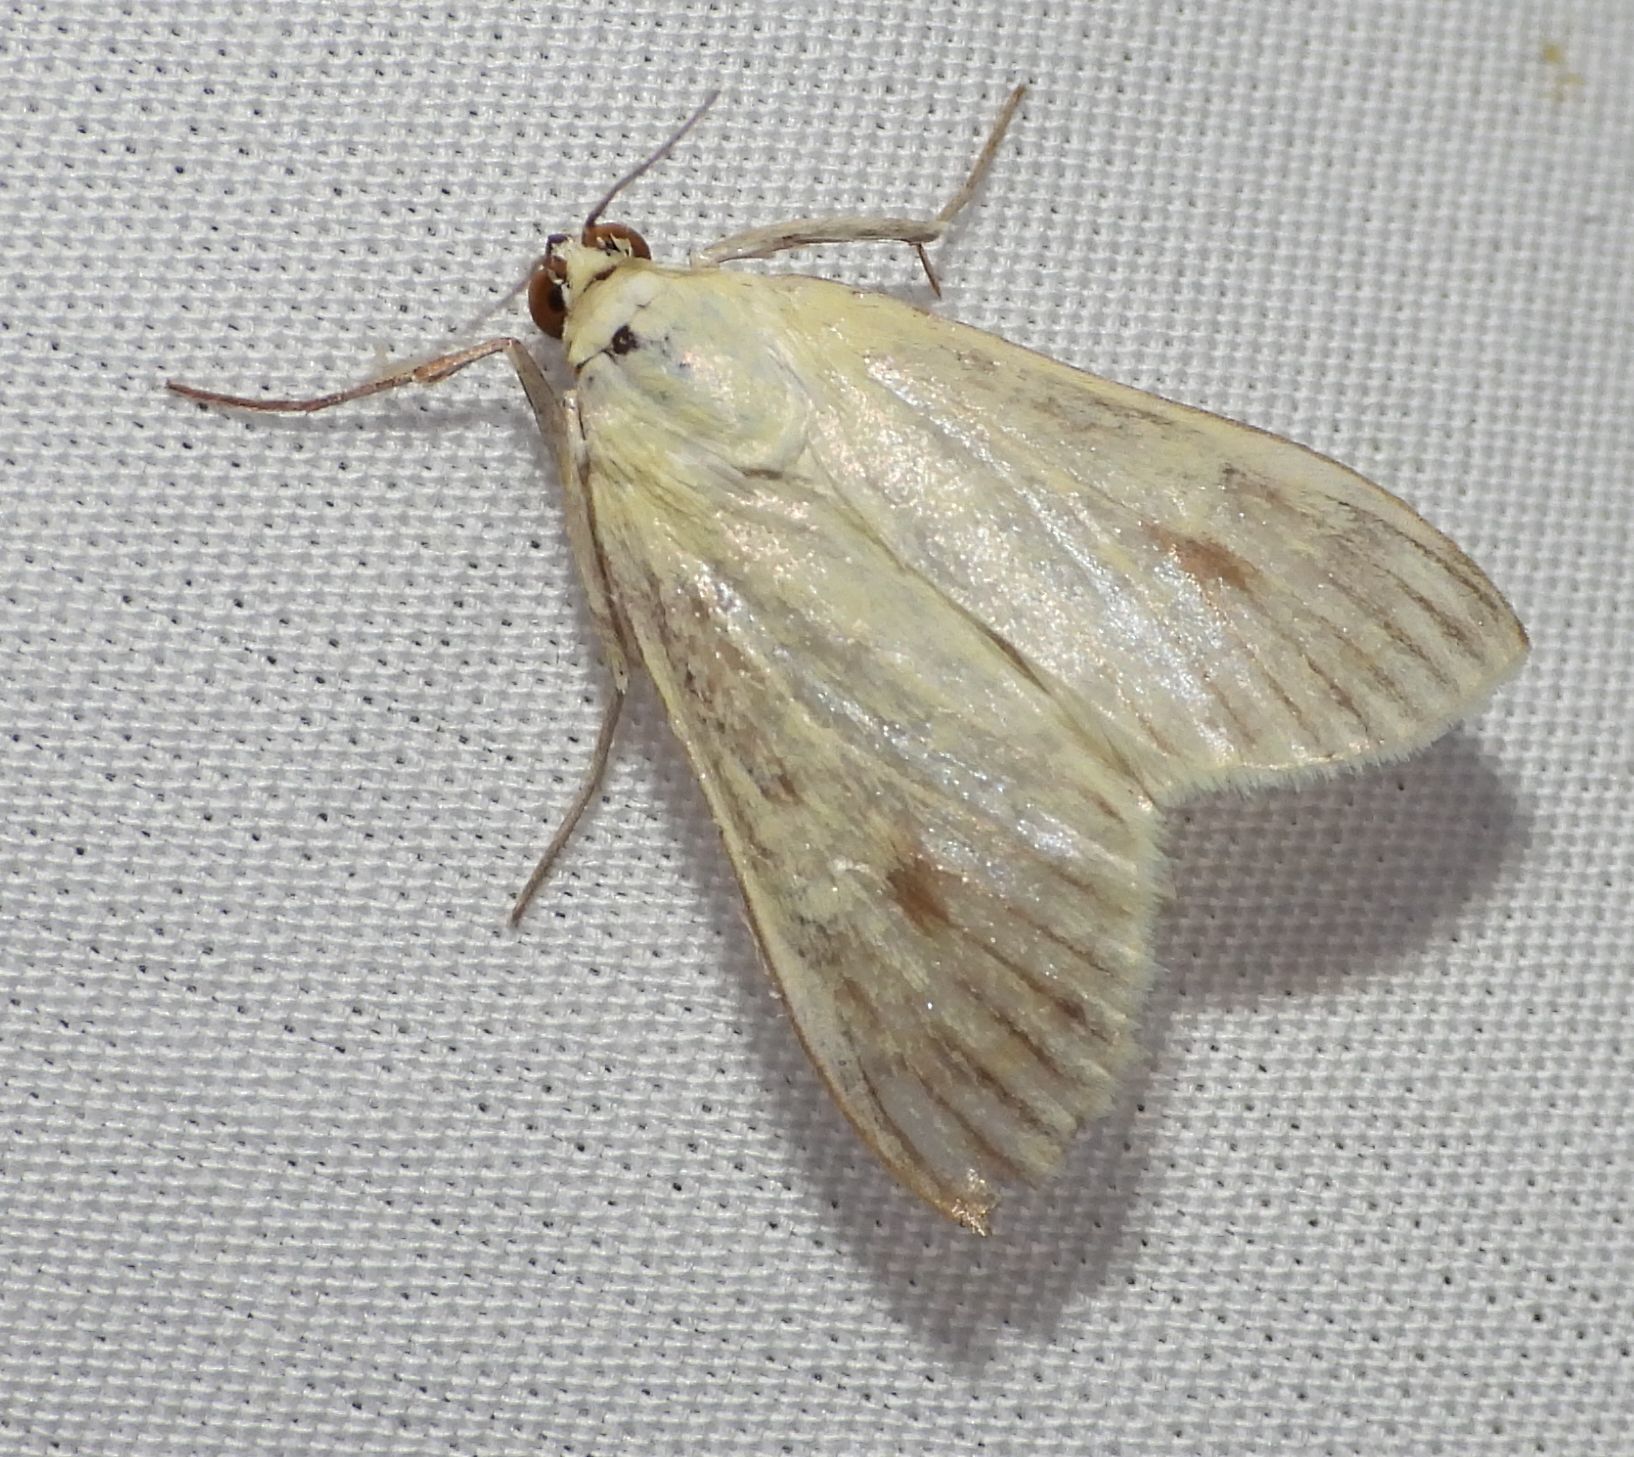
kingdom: Animalia
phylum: Arthropoda
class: Insecta
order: Lepidoptera
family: Crambidae
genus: Sitochroa
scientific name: Sitochroa palealis
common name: Greenish-yellow sitochroa moth
